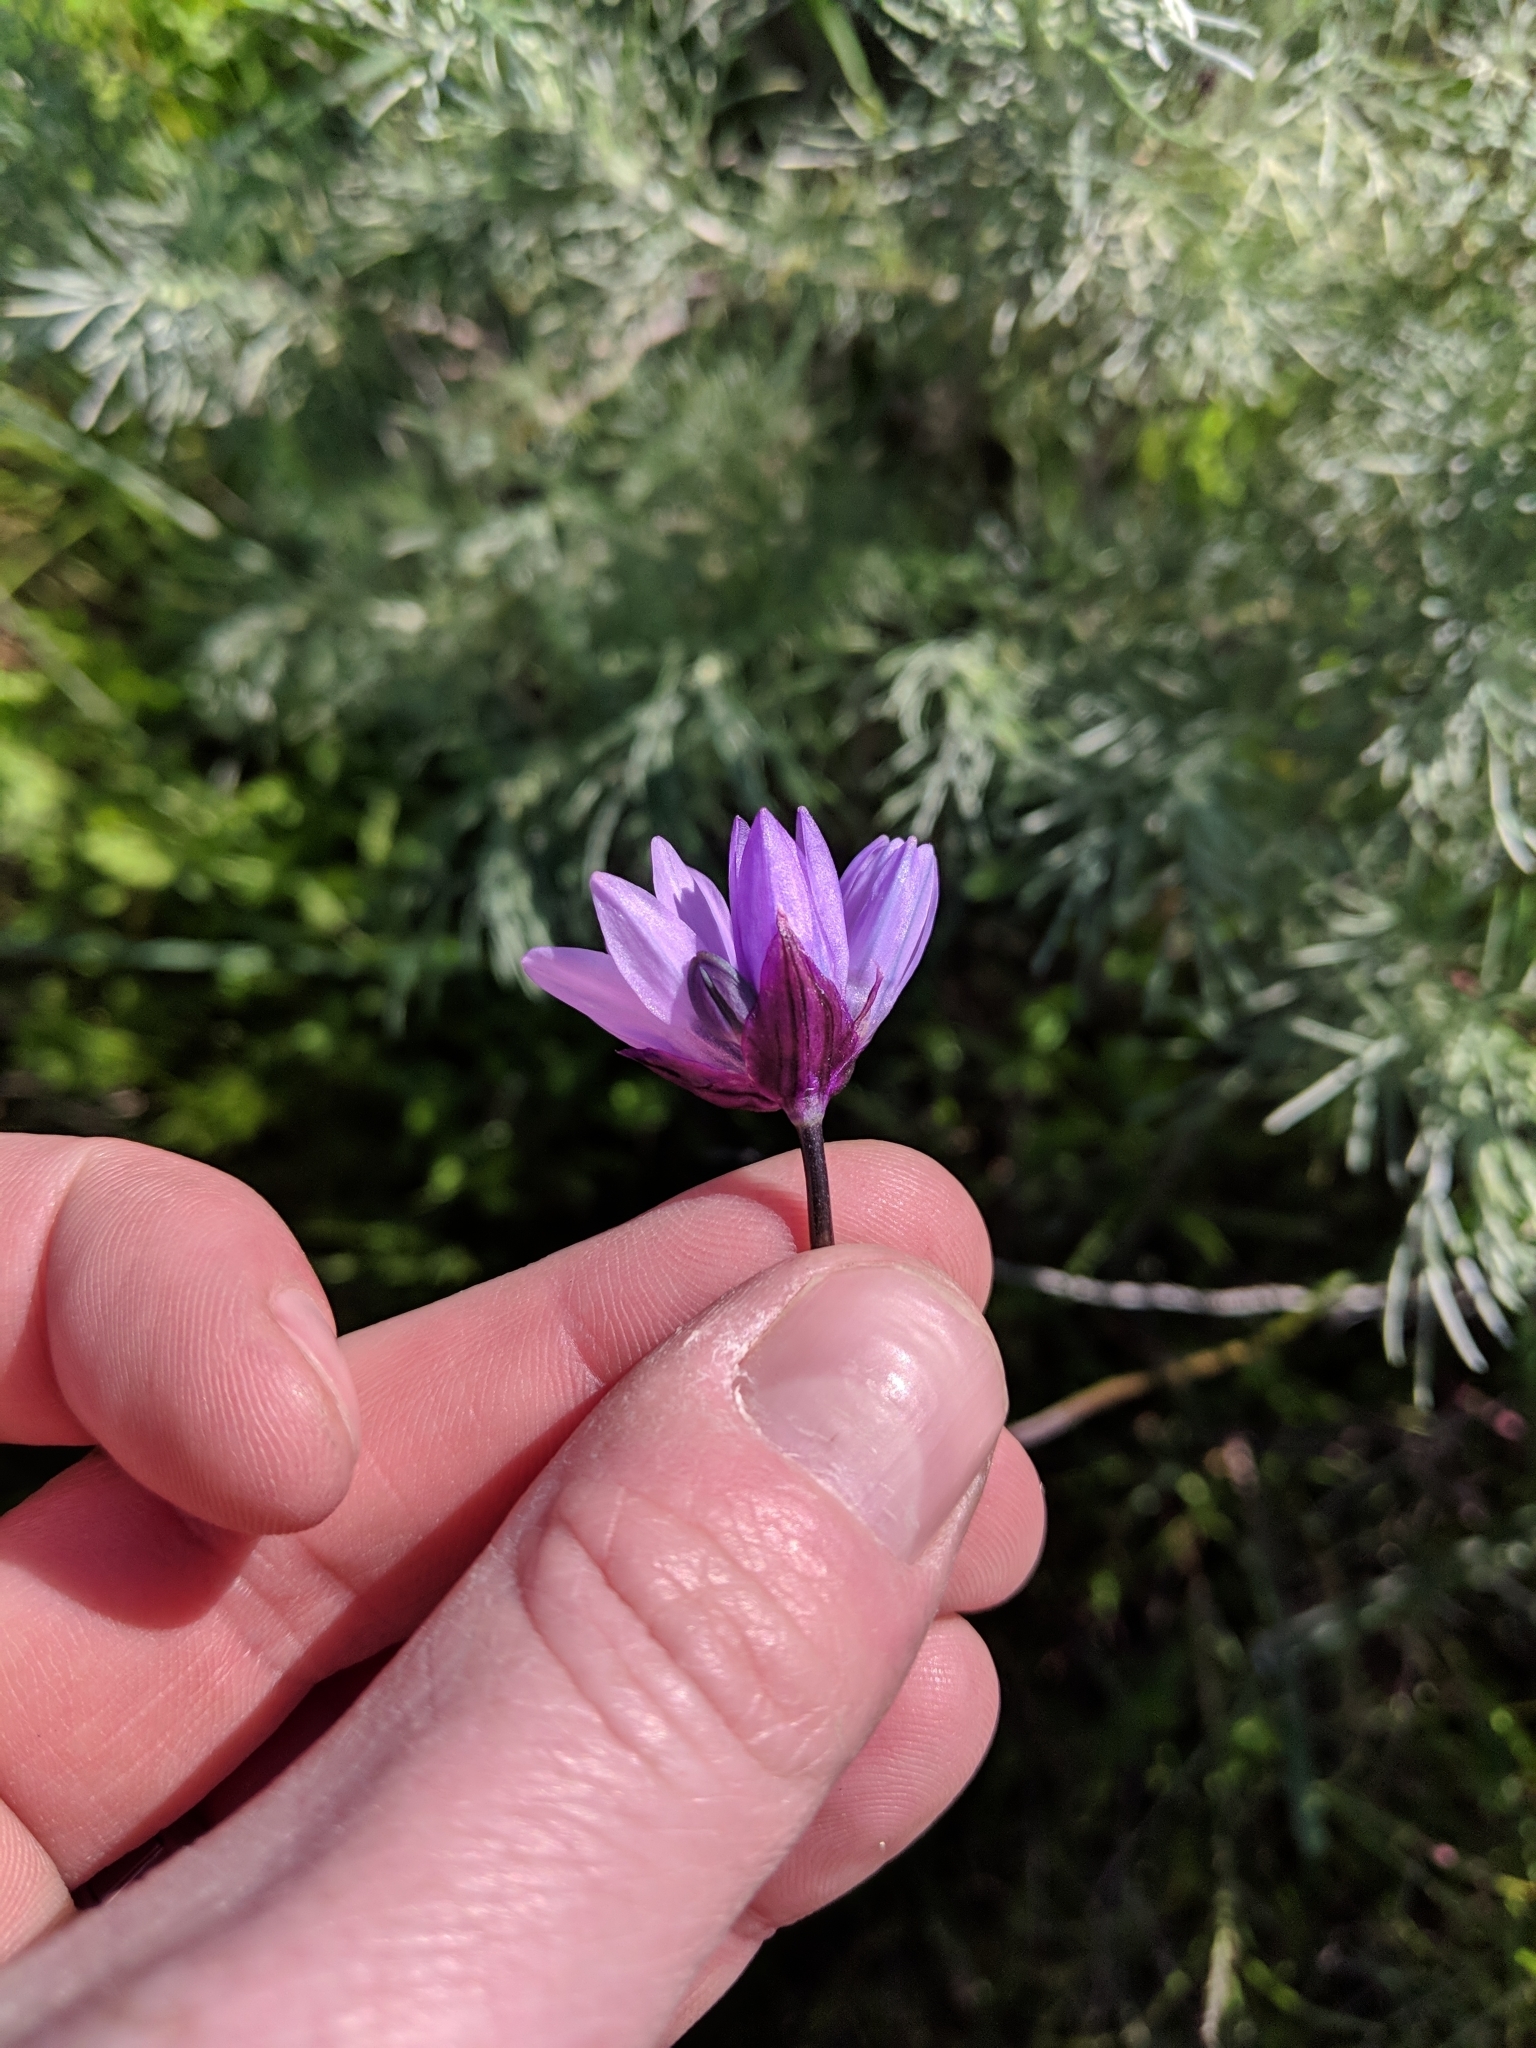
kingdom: Plantae
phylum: Tracheophyta
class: Liliopsida
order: Asparagales
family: Asparagaceae
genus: Dipterostemon
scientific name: Dipterostemon capitatus
